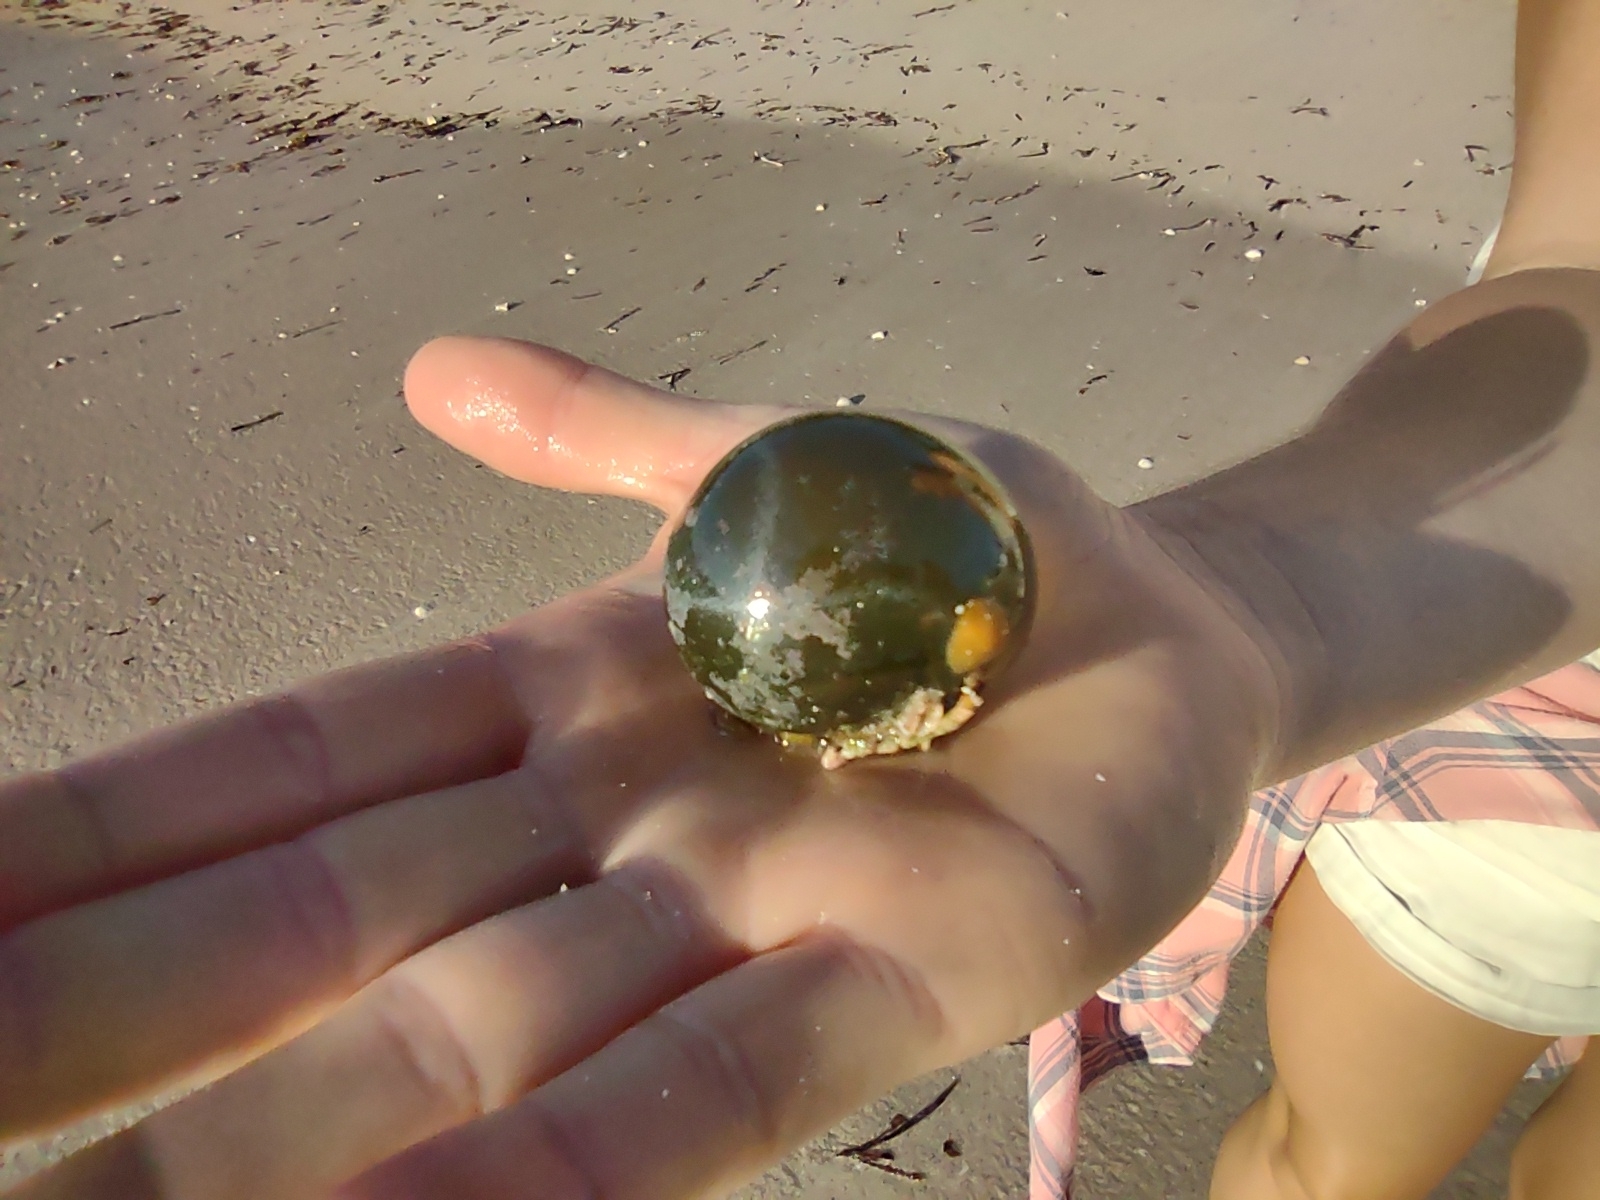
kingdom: Plantae
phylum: Chlorophyta
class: Ulvophyceae
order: Siphonocladales
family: Valoniaceae
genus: Valonia
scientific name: Valonia ventricosa
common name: Sea pearl
